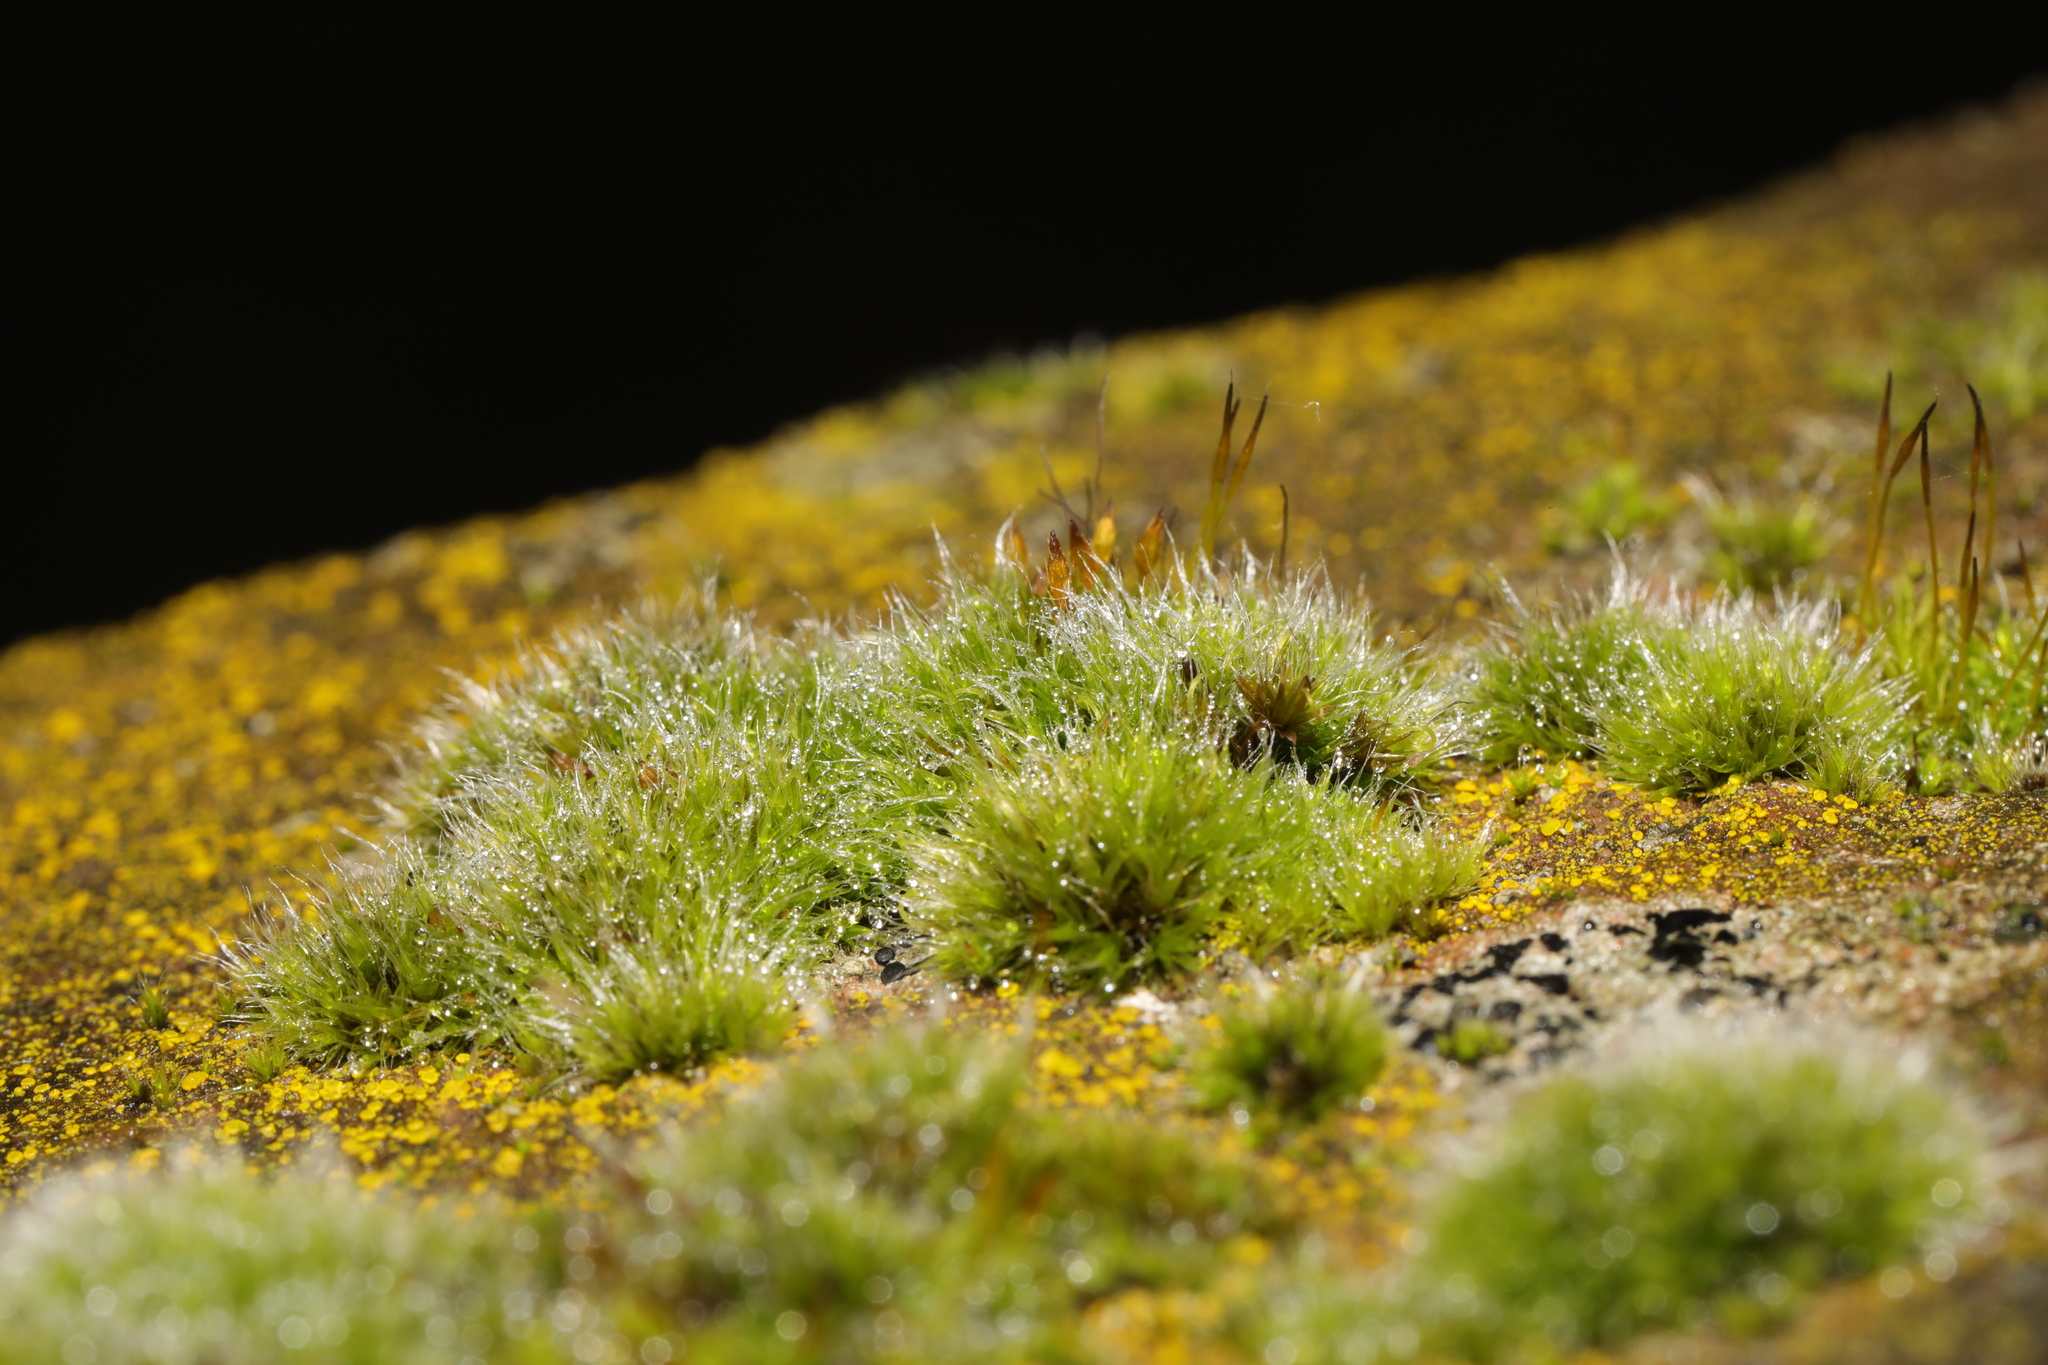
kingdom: Plantae
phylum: Bryophyta
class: Bryopsida
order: Grimmiales
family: Grimmiaceae
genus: Grimmia
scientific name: Grimmia pulvinata
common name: Grey-cushioned grimmia
